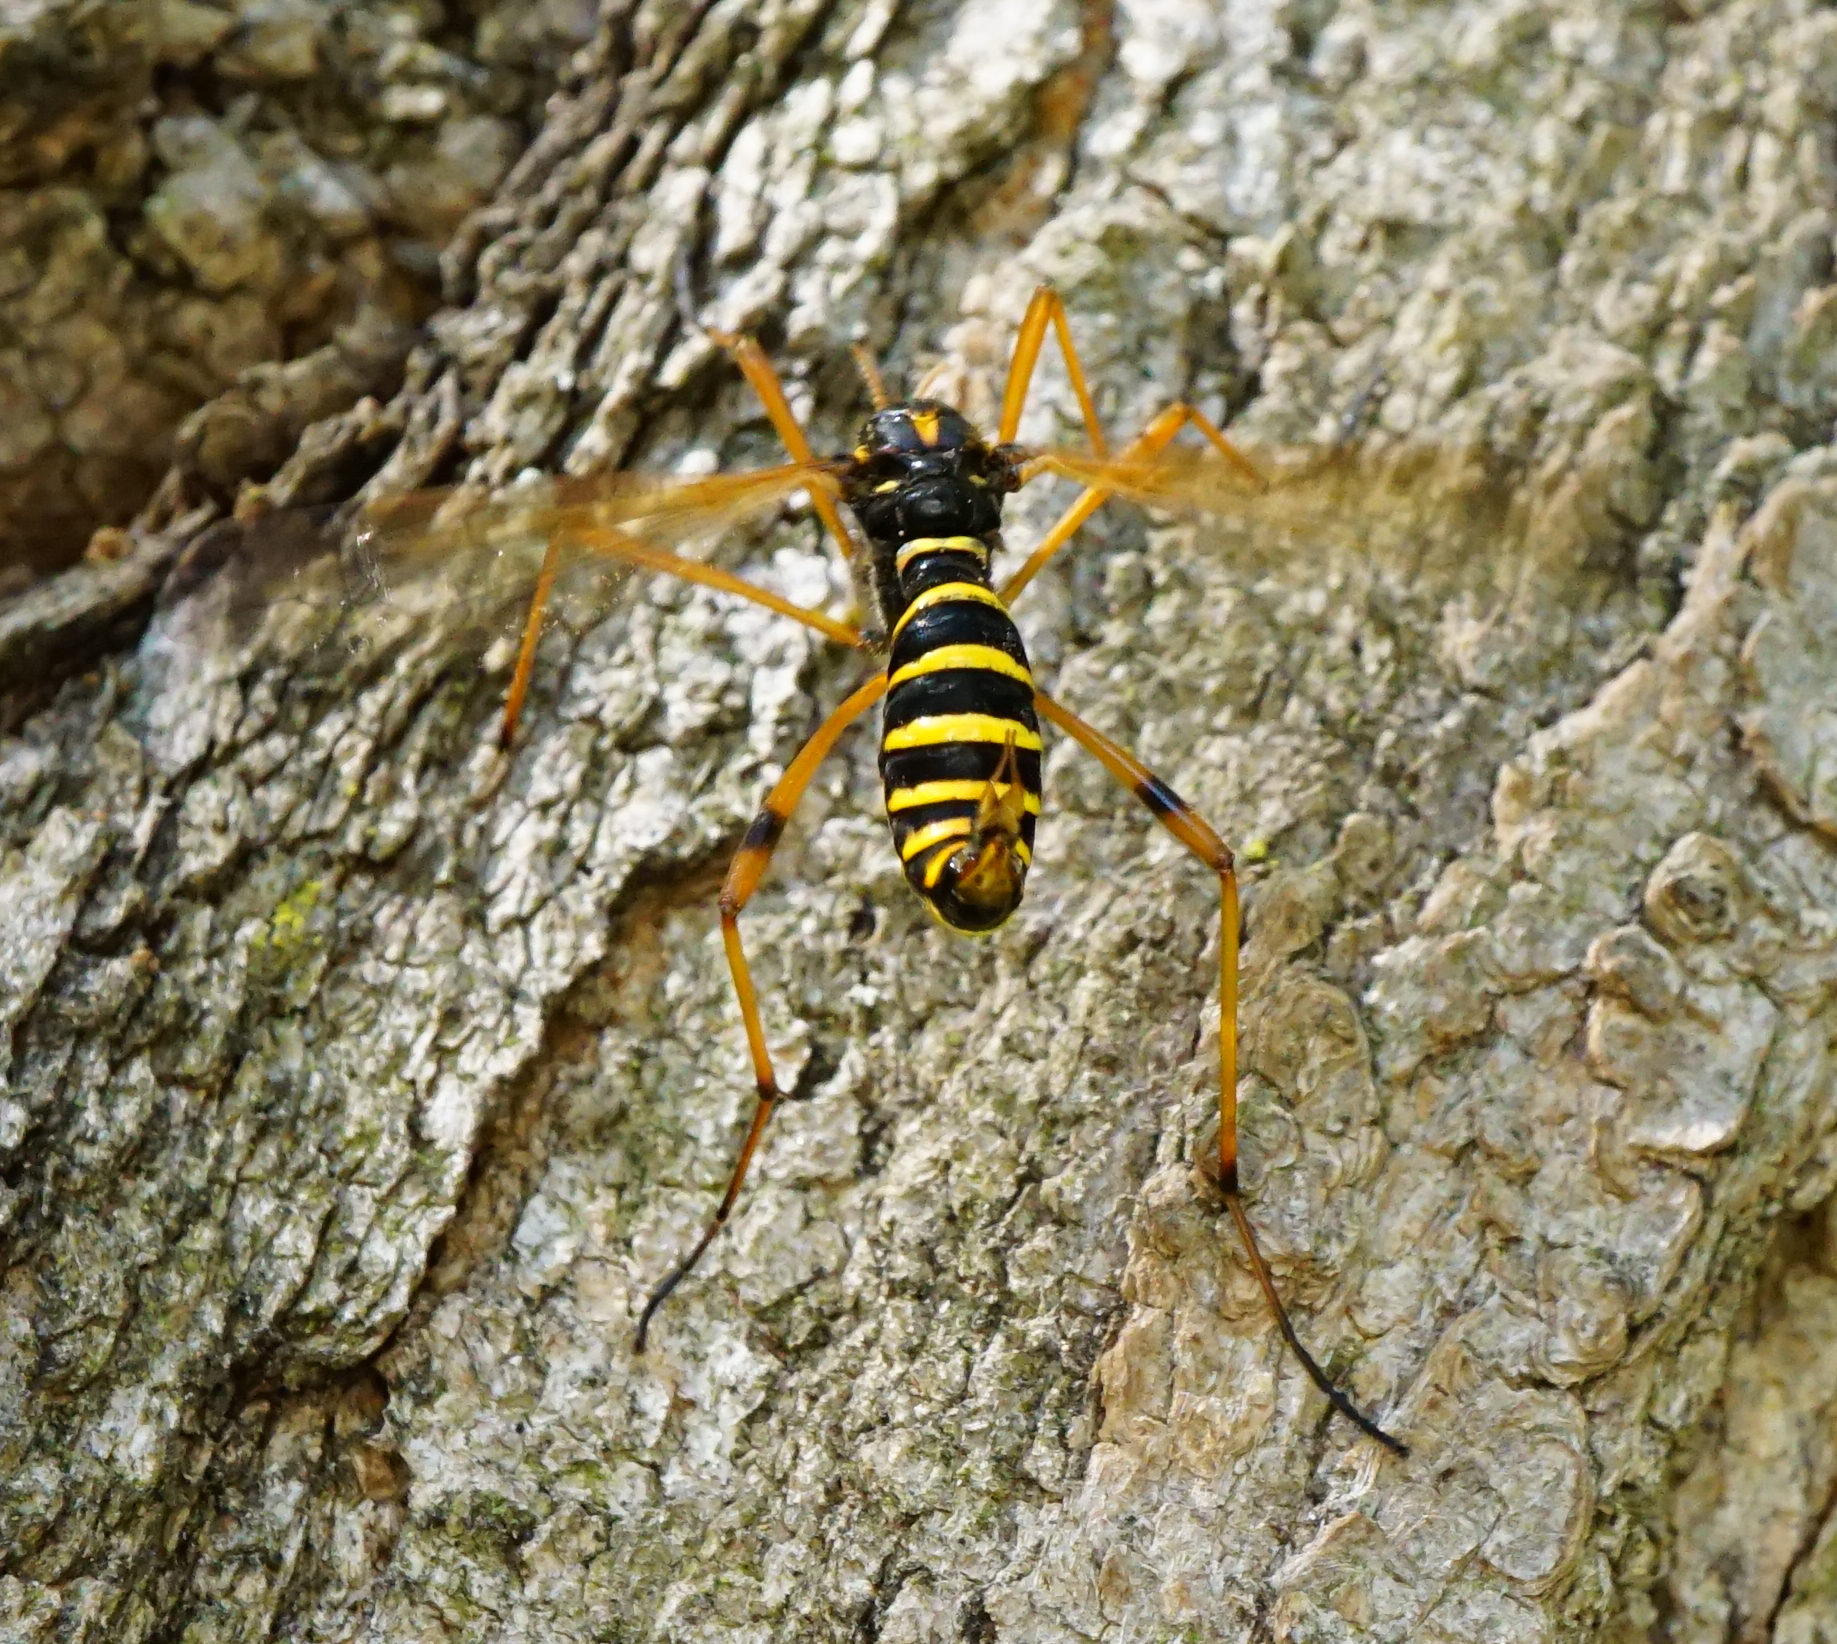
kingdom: Animalia
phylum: Arthropoda
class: Insecta
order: Diptera
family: Tipulidae
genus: Ctenophora
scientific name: Ctenophora flaveolata
